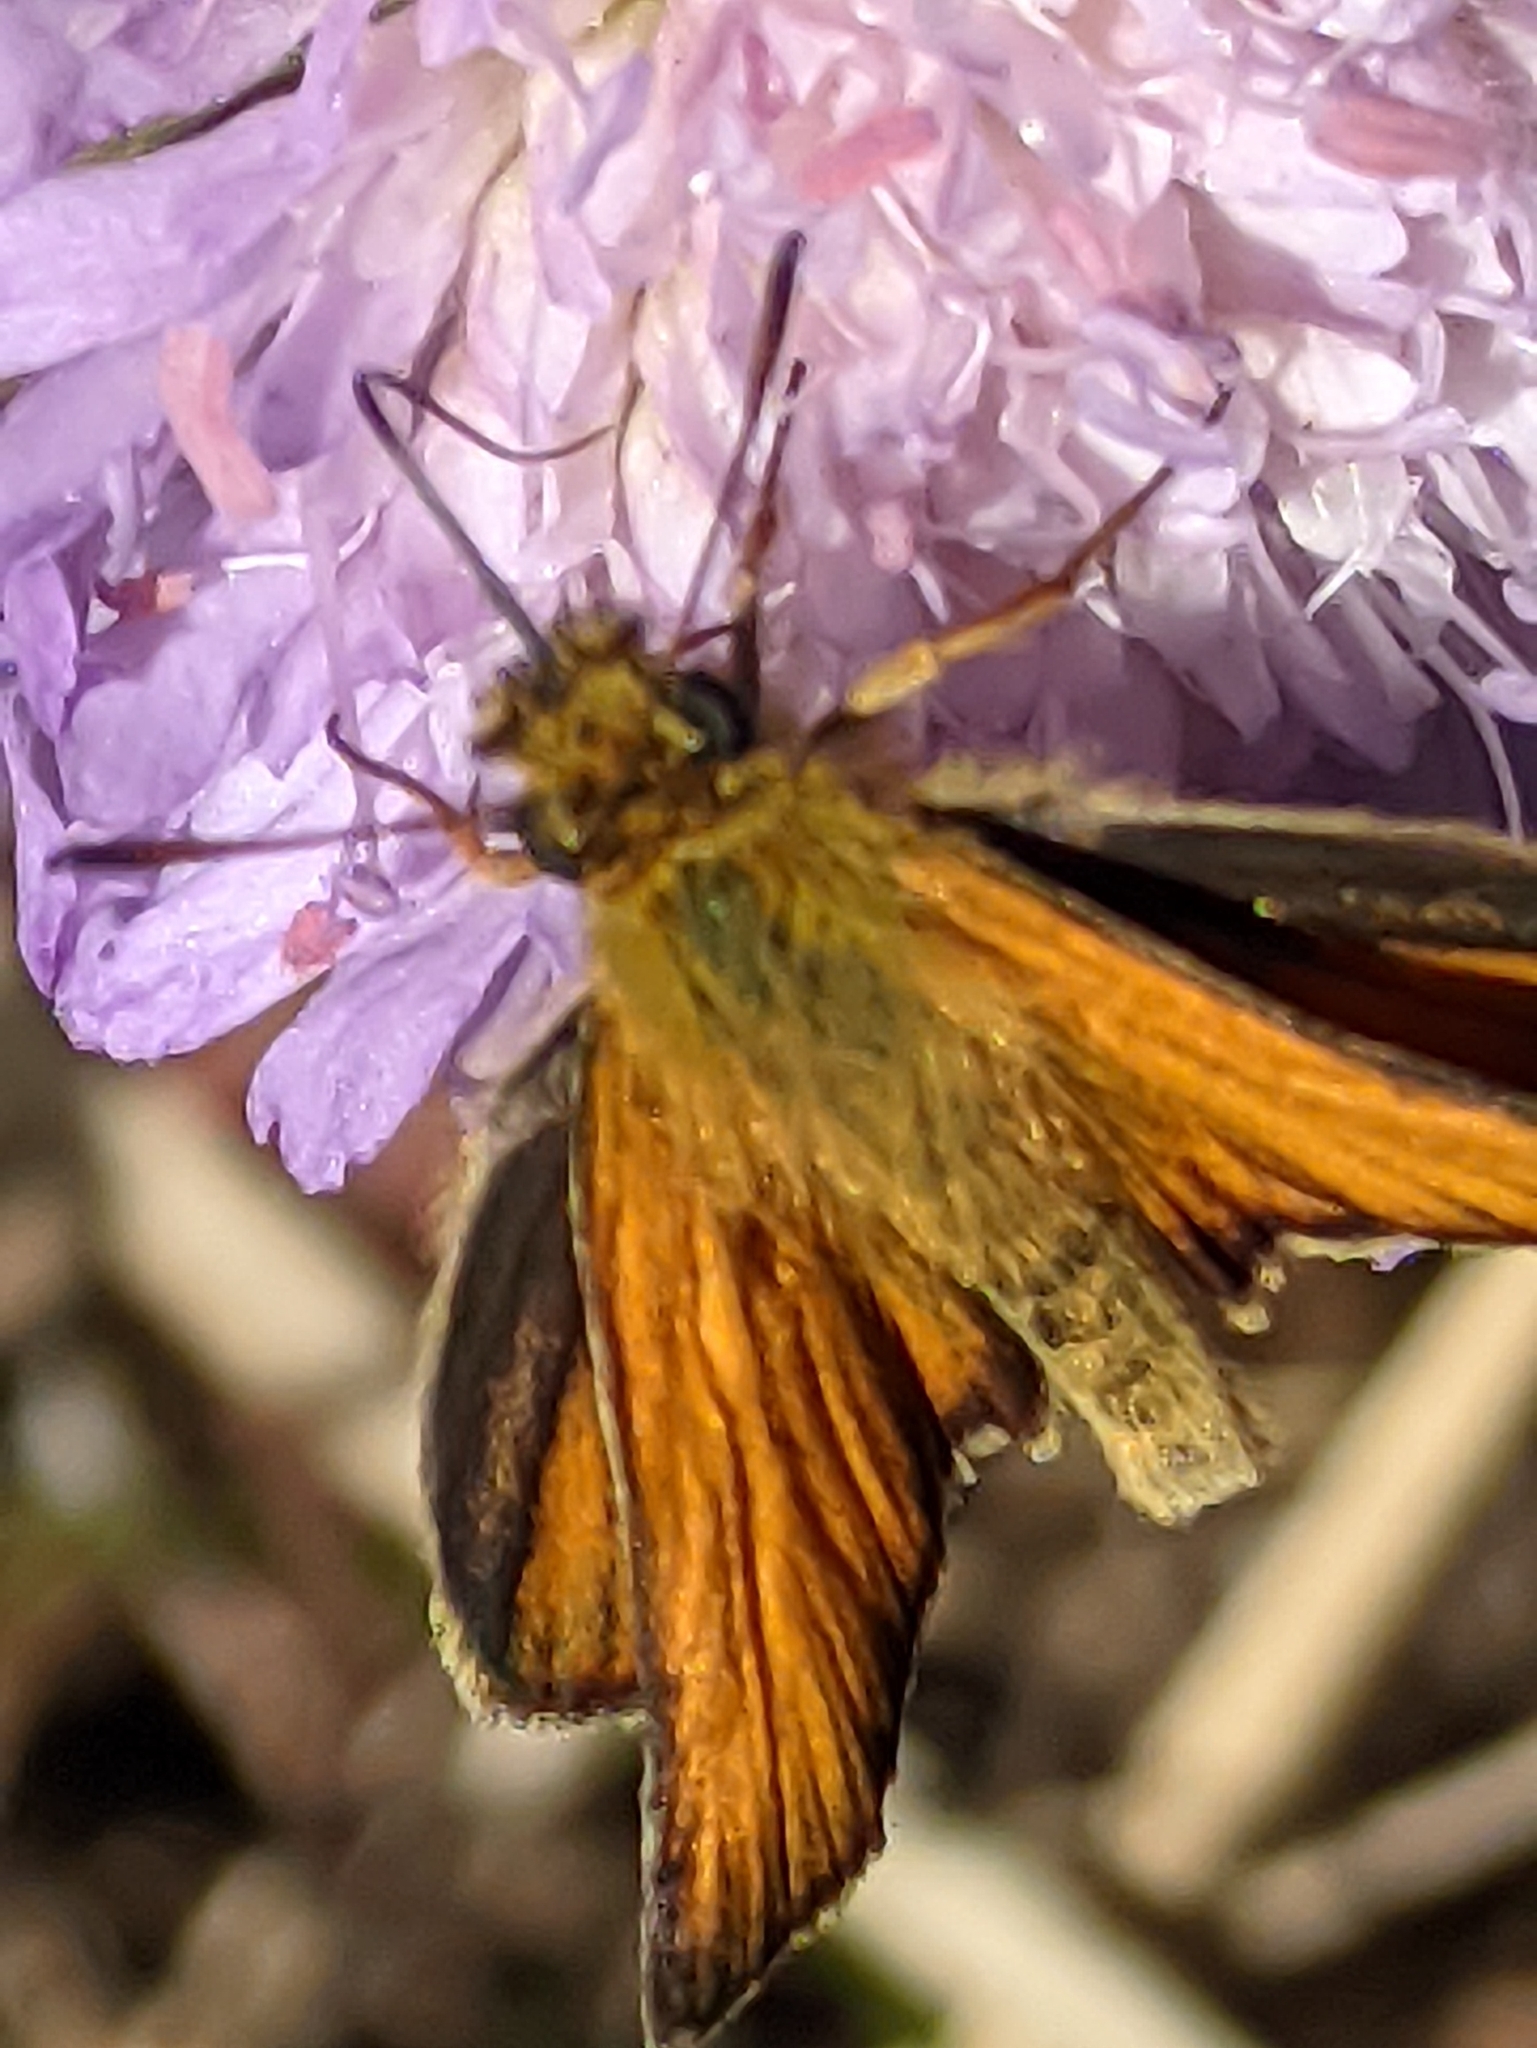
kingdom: Animalia
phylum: Arthropoda
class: Insecta
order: Lepidoptera
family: Hesperiidae
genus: Thymelicus
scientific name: Thymelicus lineola
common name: Essex skipper
